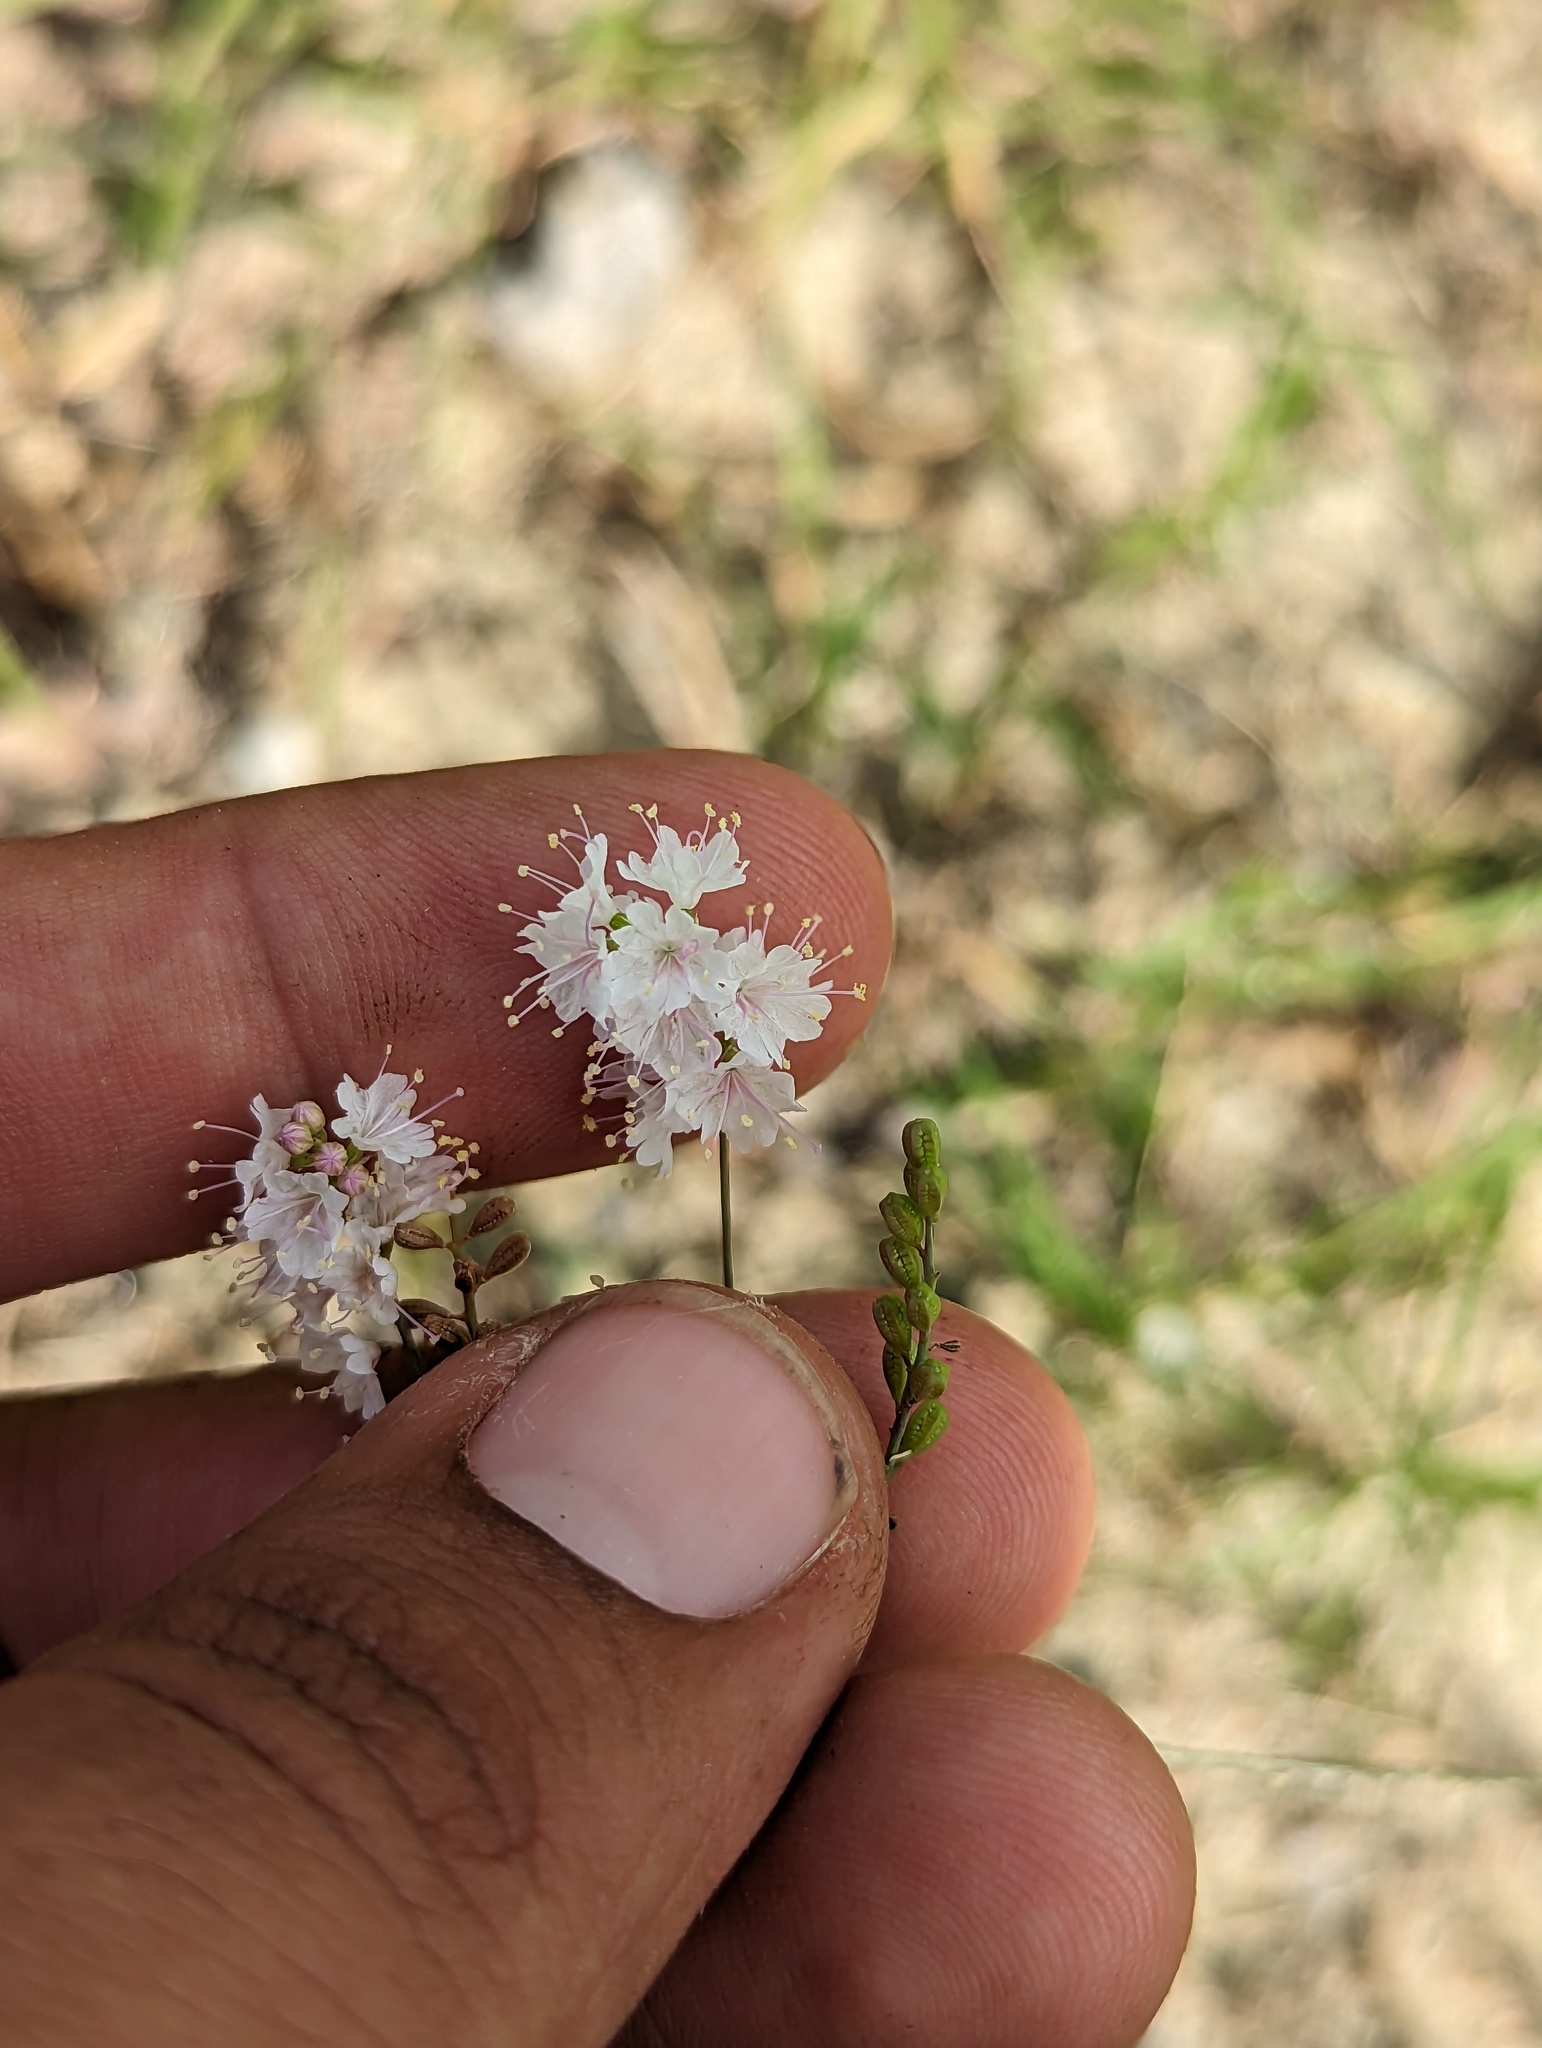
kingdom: Plantae
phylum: Tracheophyta
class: Magnoliopsida
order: Caryophyllales
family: Nyctaginaceae
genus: Boerhavia
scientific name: Boerhavia xantii
